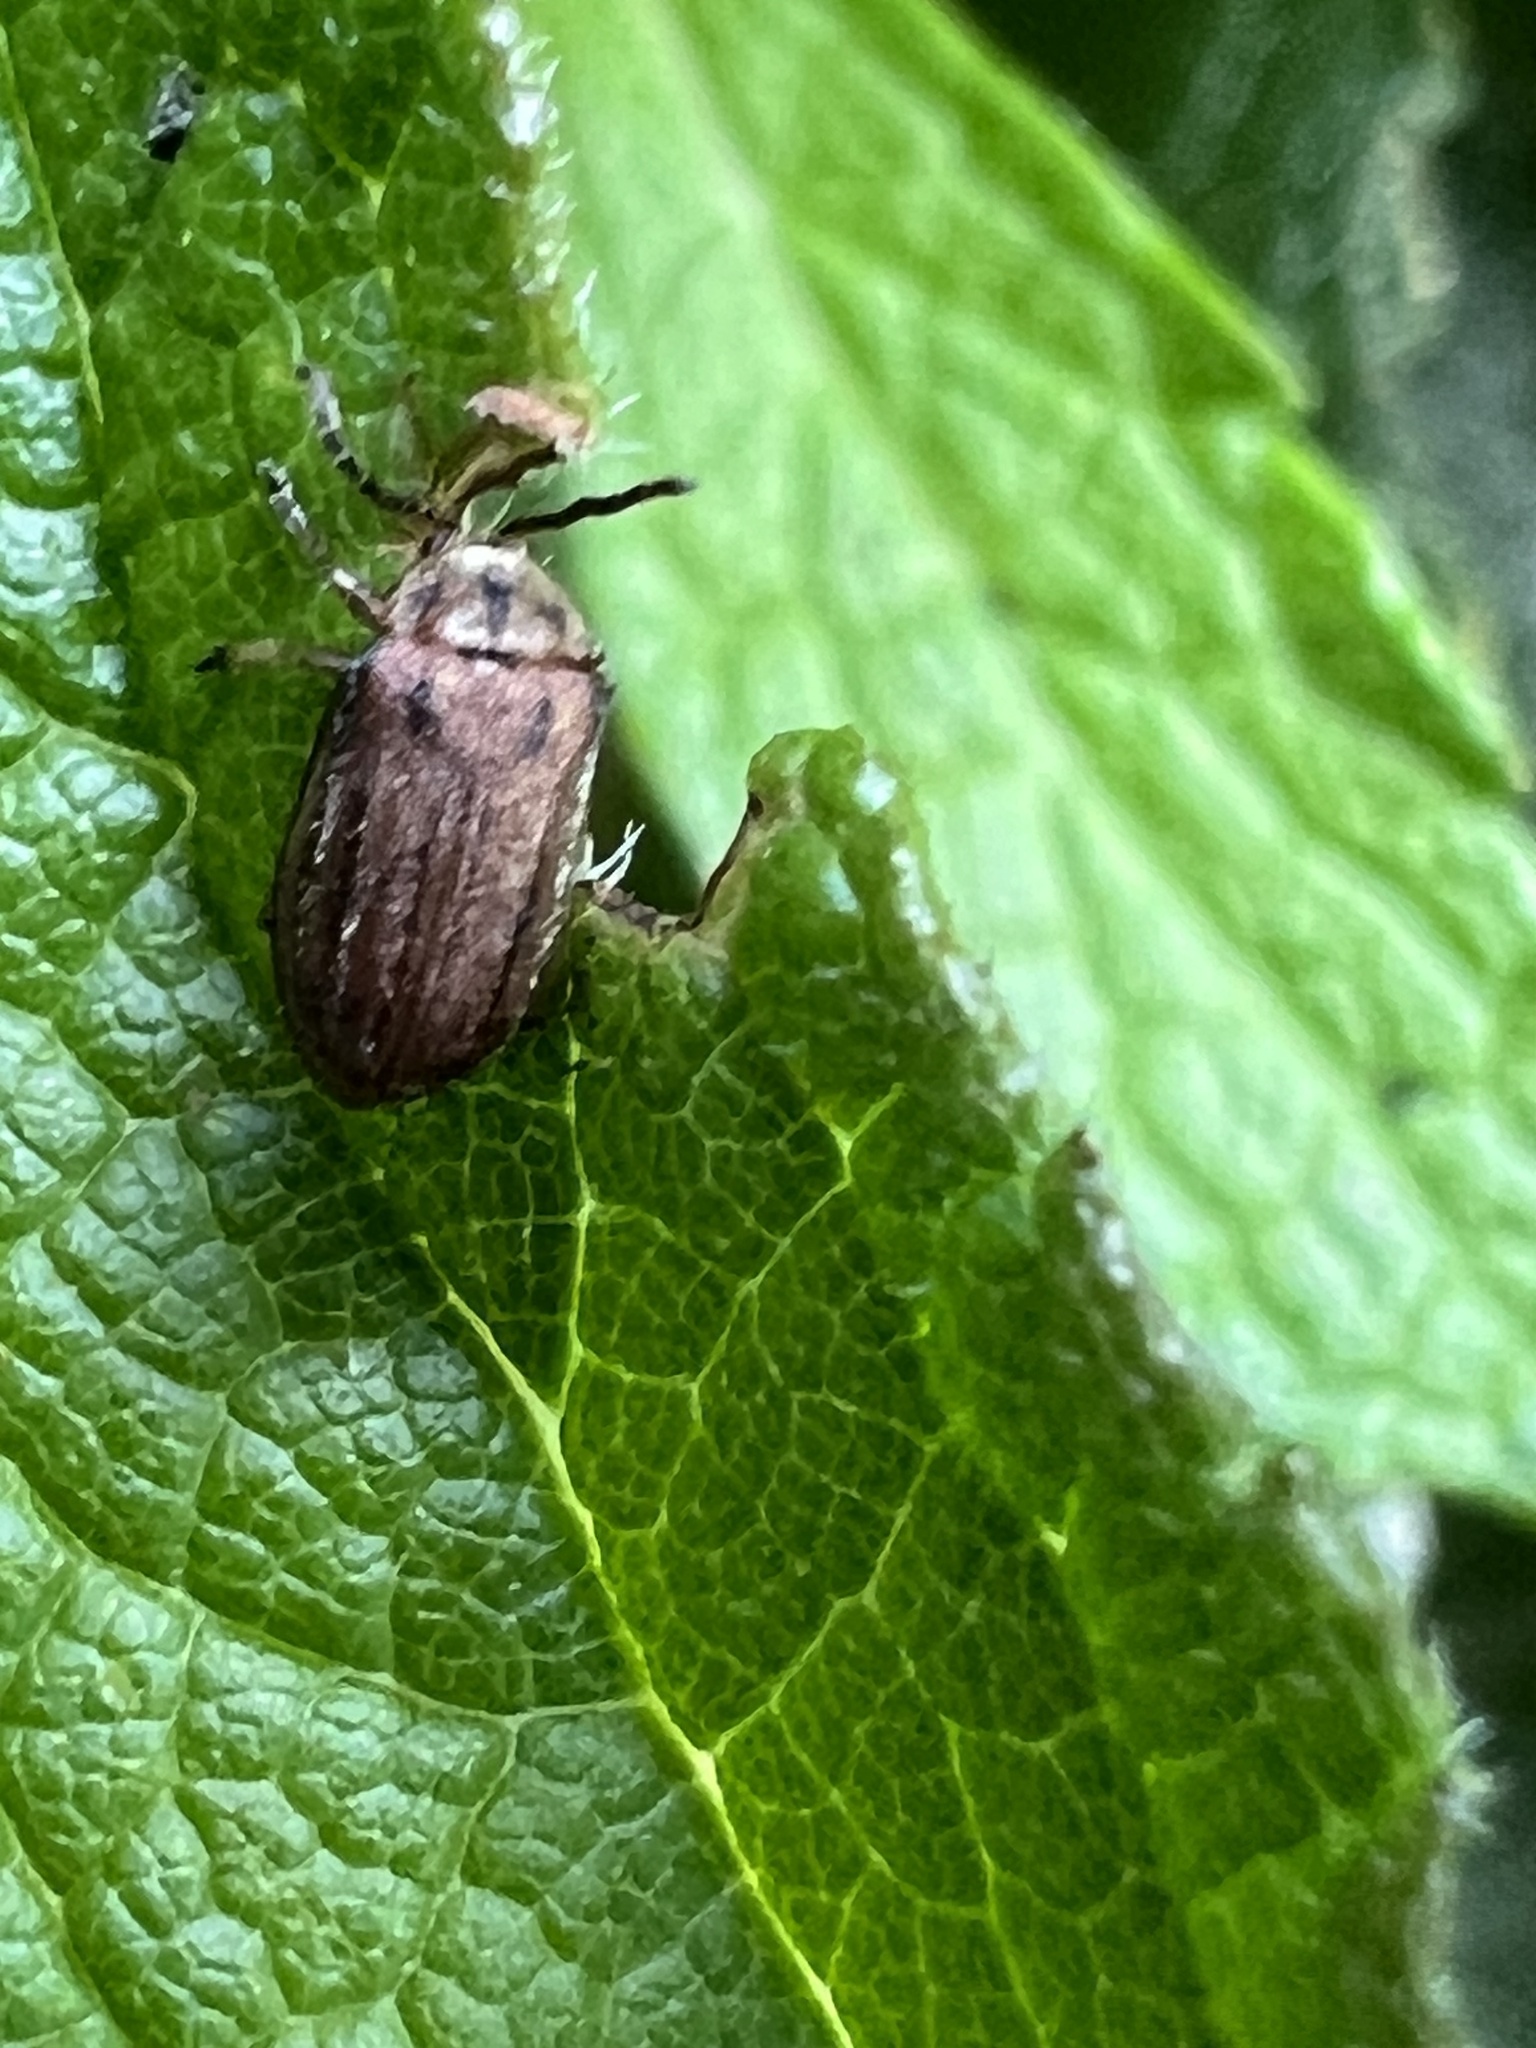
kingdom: Animalia
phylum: Arthropoda
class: Insecta
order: Coleoptera
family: Chrysomelidae
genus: Ophraella
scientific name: Ophraella notata
